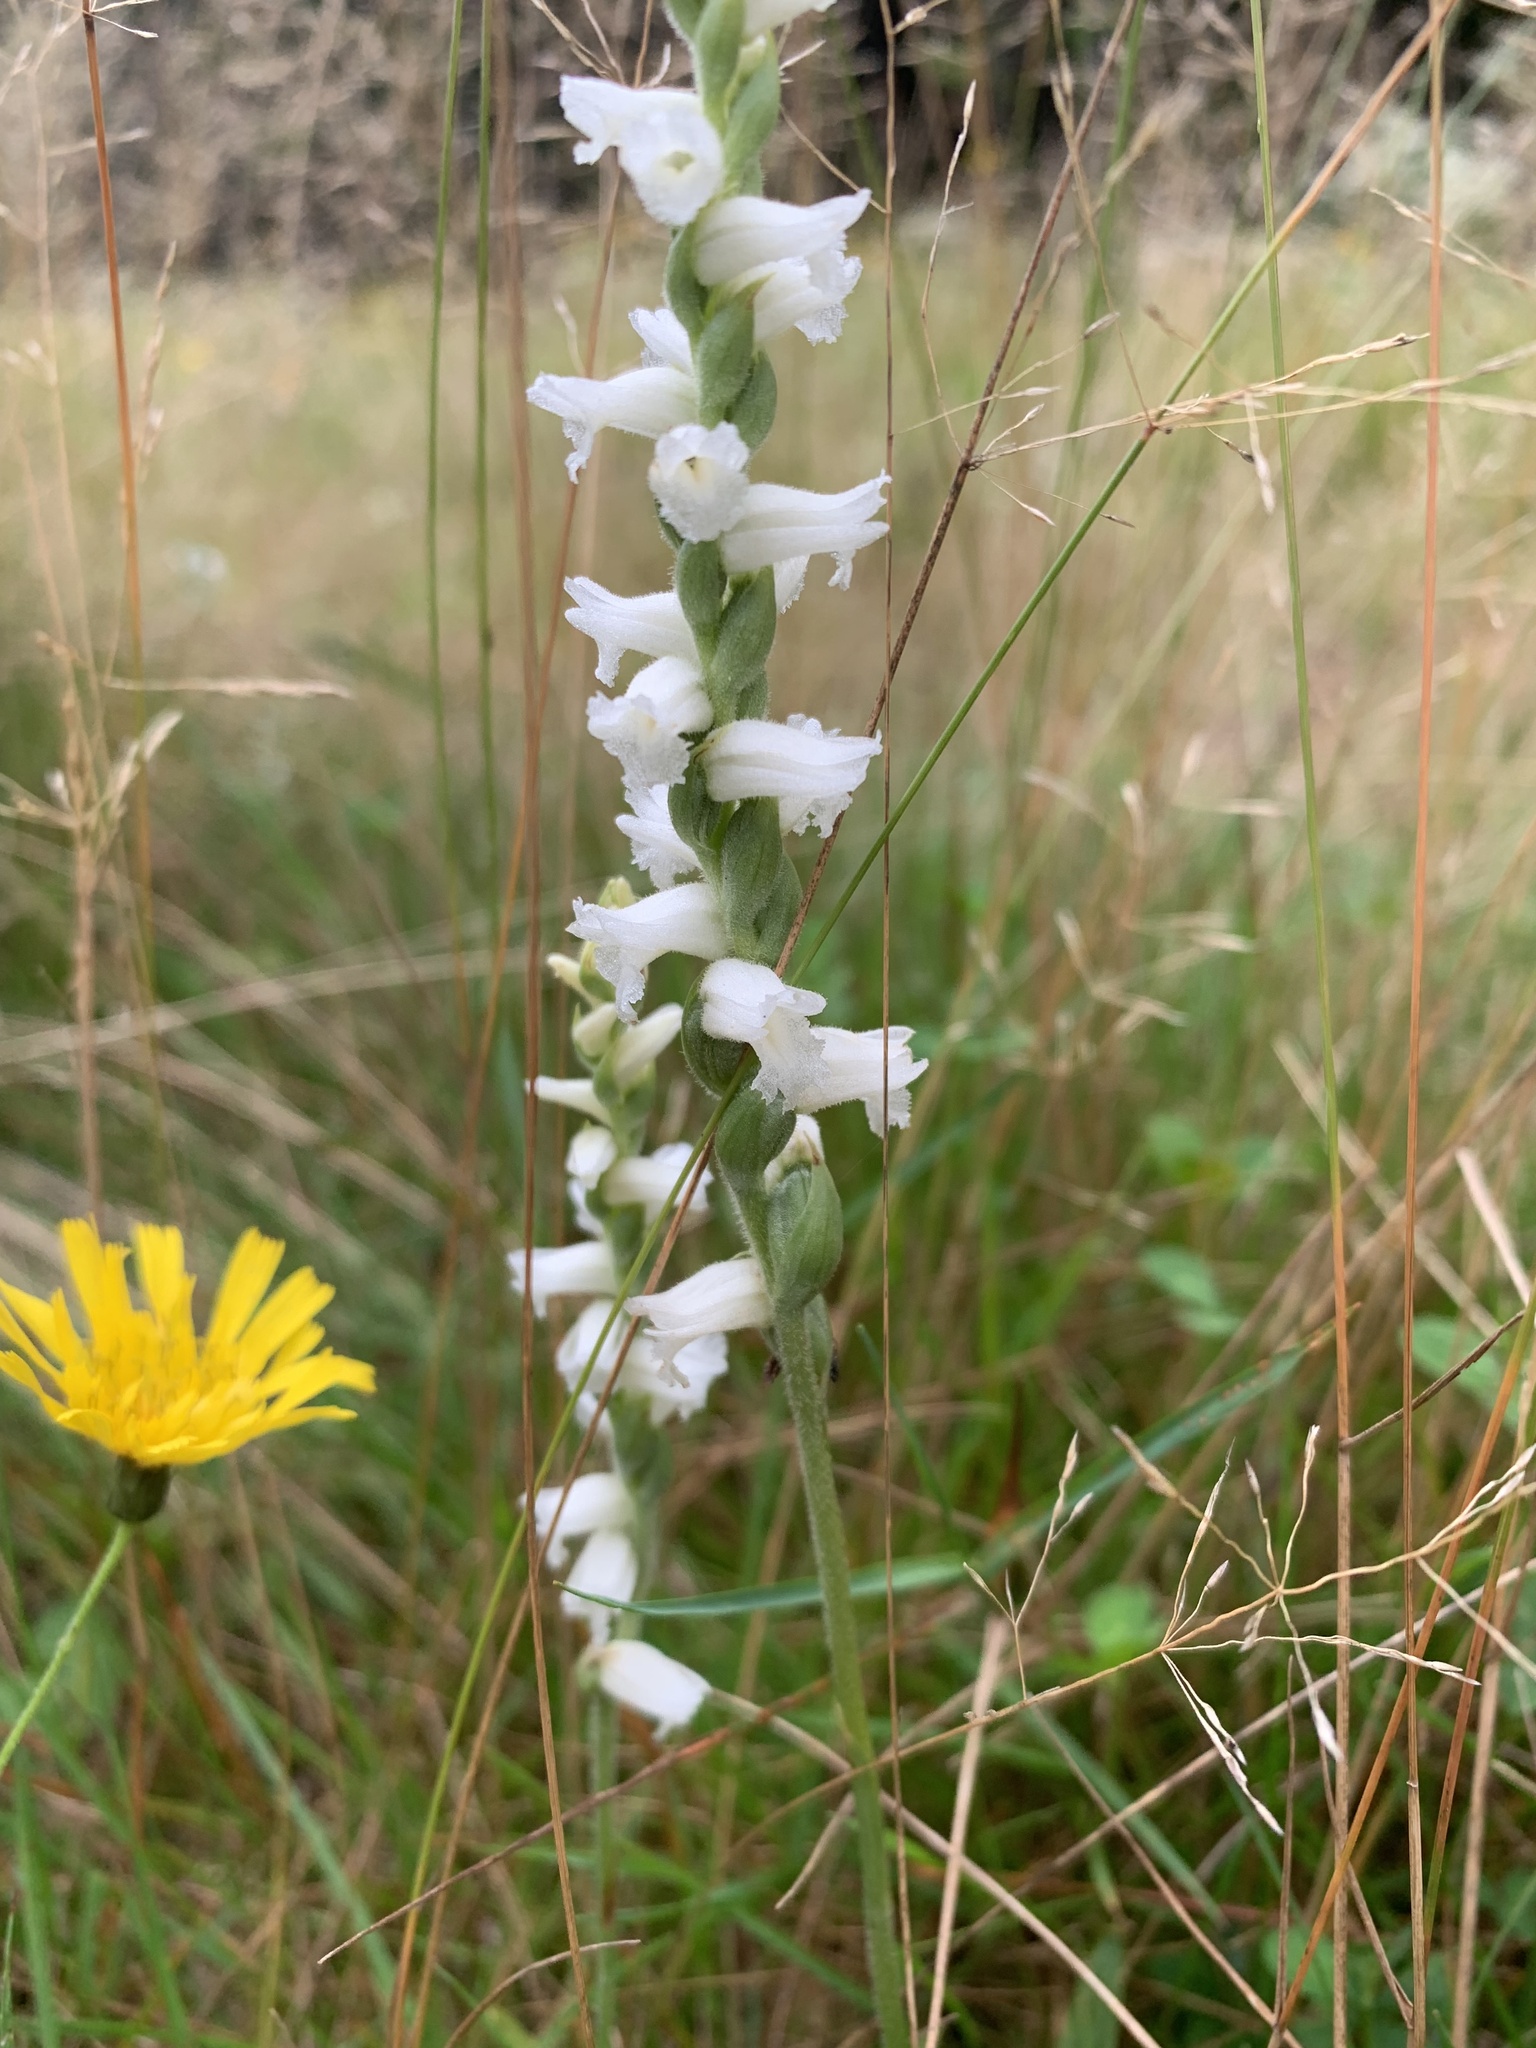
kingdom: Plantae
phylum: Tracheophyta
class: Liliopsida
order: Asparagales
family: Orchidaceae
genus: Spiranthes
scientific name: Spiranthes arcisepala
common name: Appalachian ladies'-tresses
